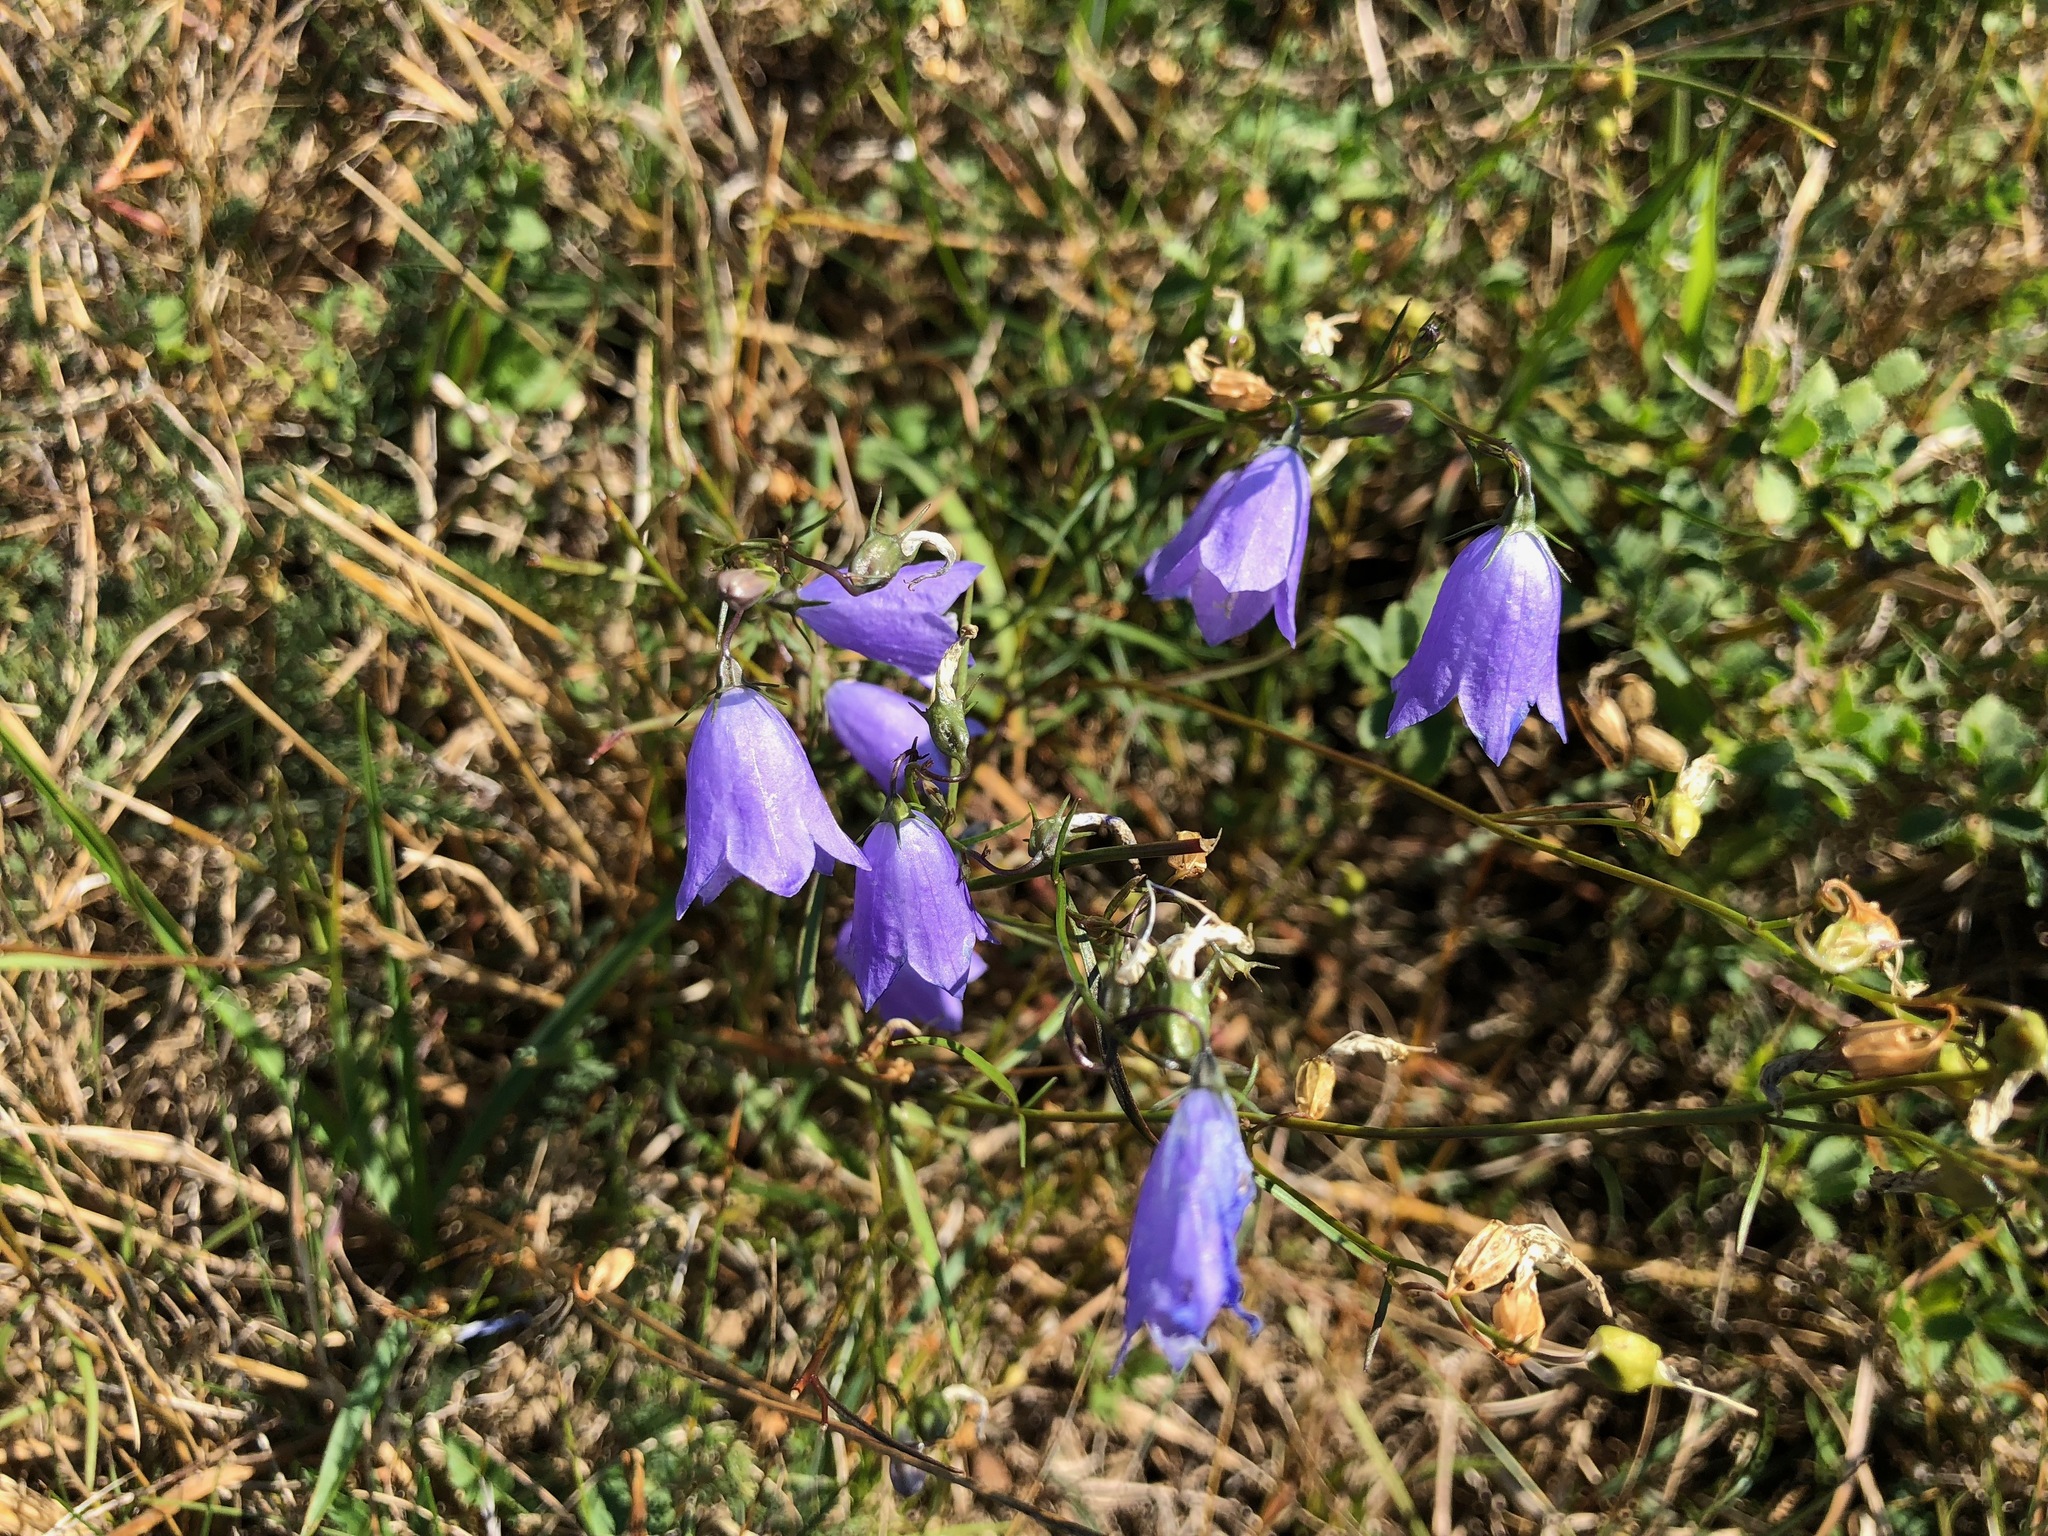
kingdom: Plantae
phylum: Tracheophyta
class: Magnoliopsida
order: Asterales
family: Campanulaceae
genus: Campanula
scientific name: Campanula rotundifolia
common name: Harebell
